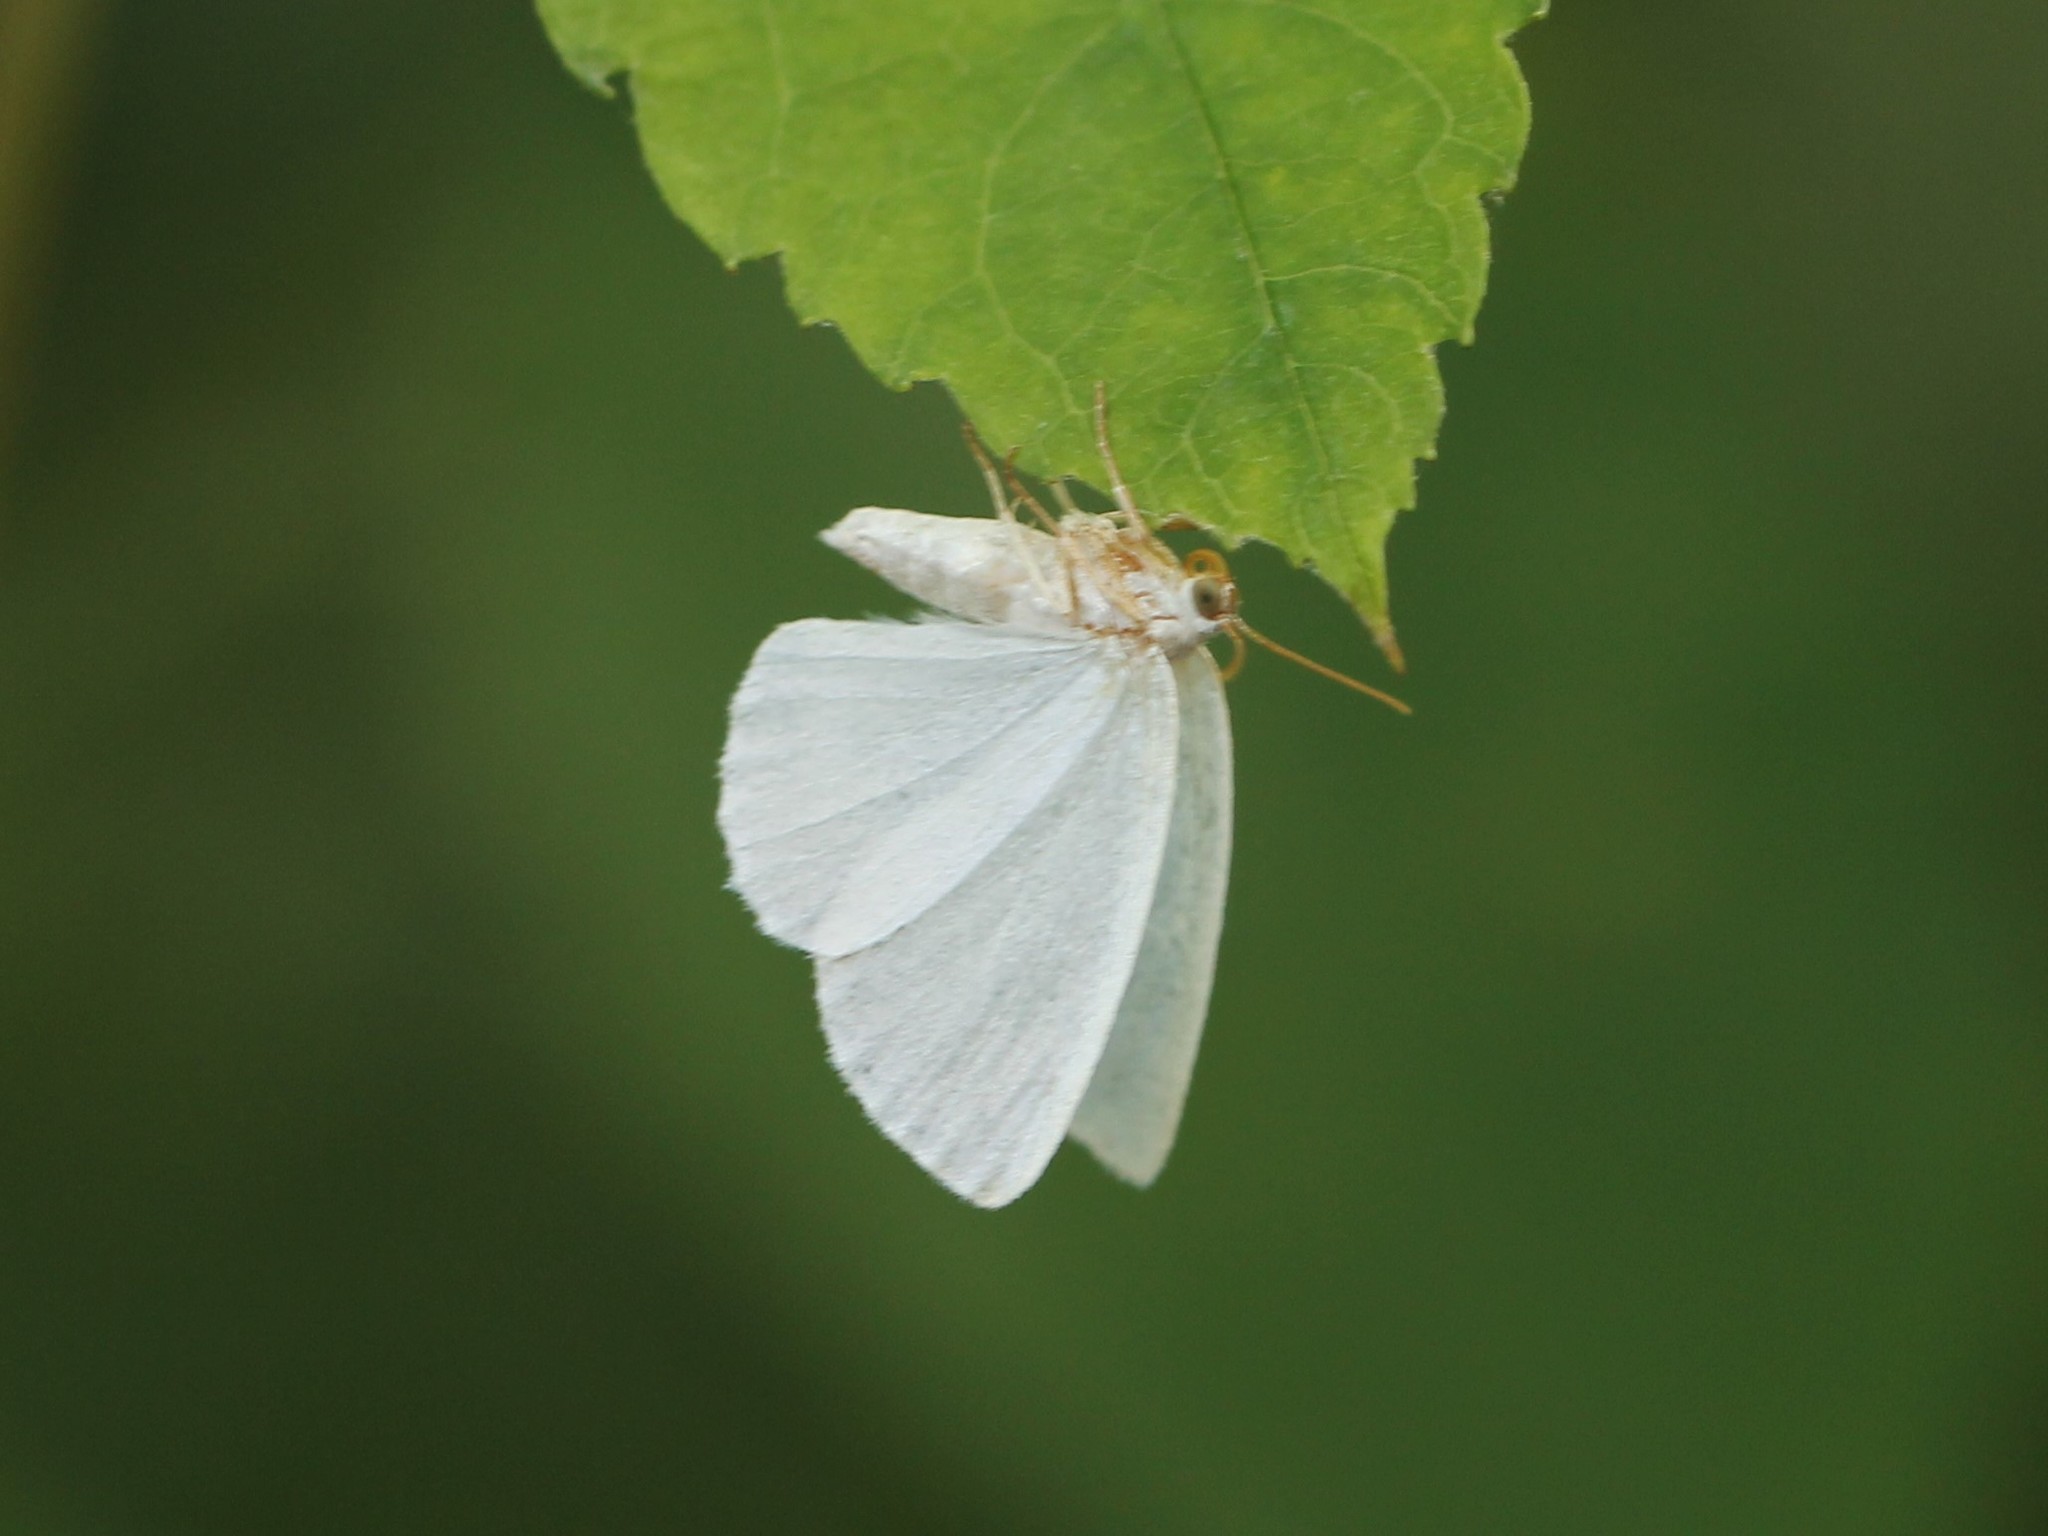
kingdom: Animalia
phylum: Arthropoda
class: Insecta
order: Lepidoptera
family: Geometridae
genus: Lomographa
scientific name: Lomographa vestaliata
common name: White spring moth
